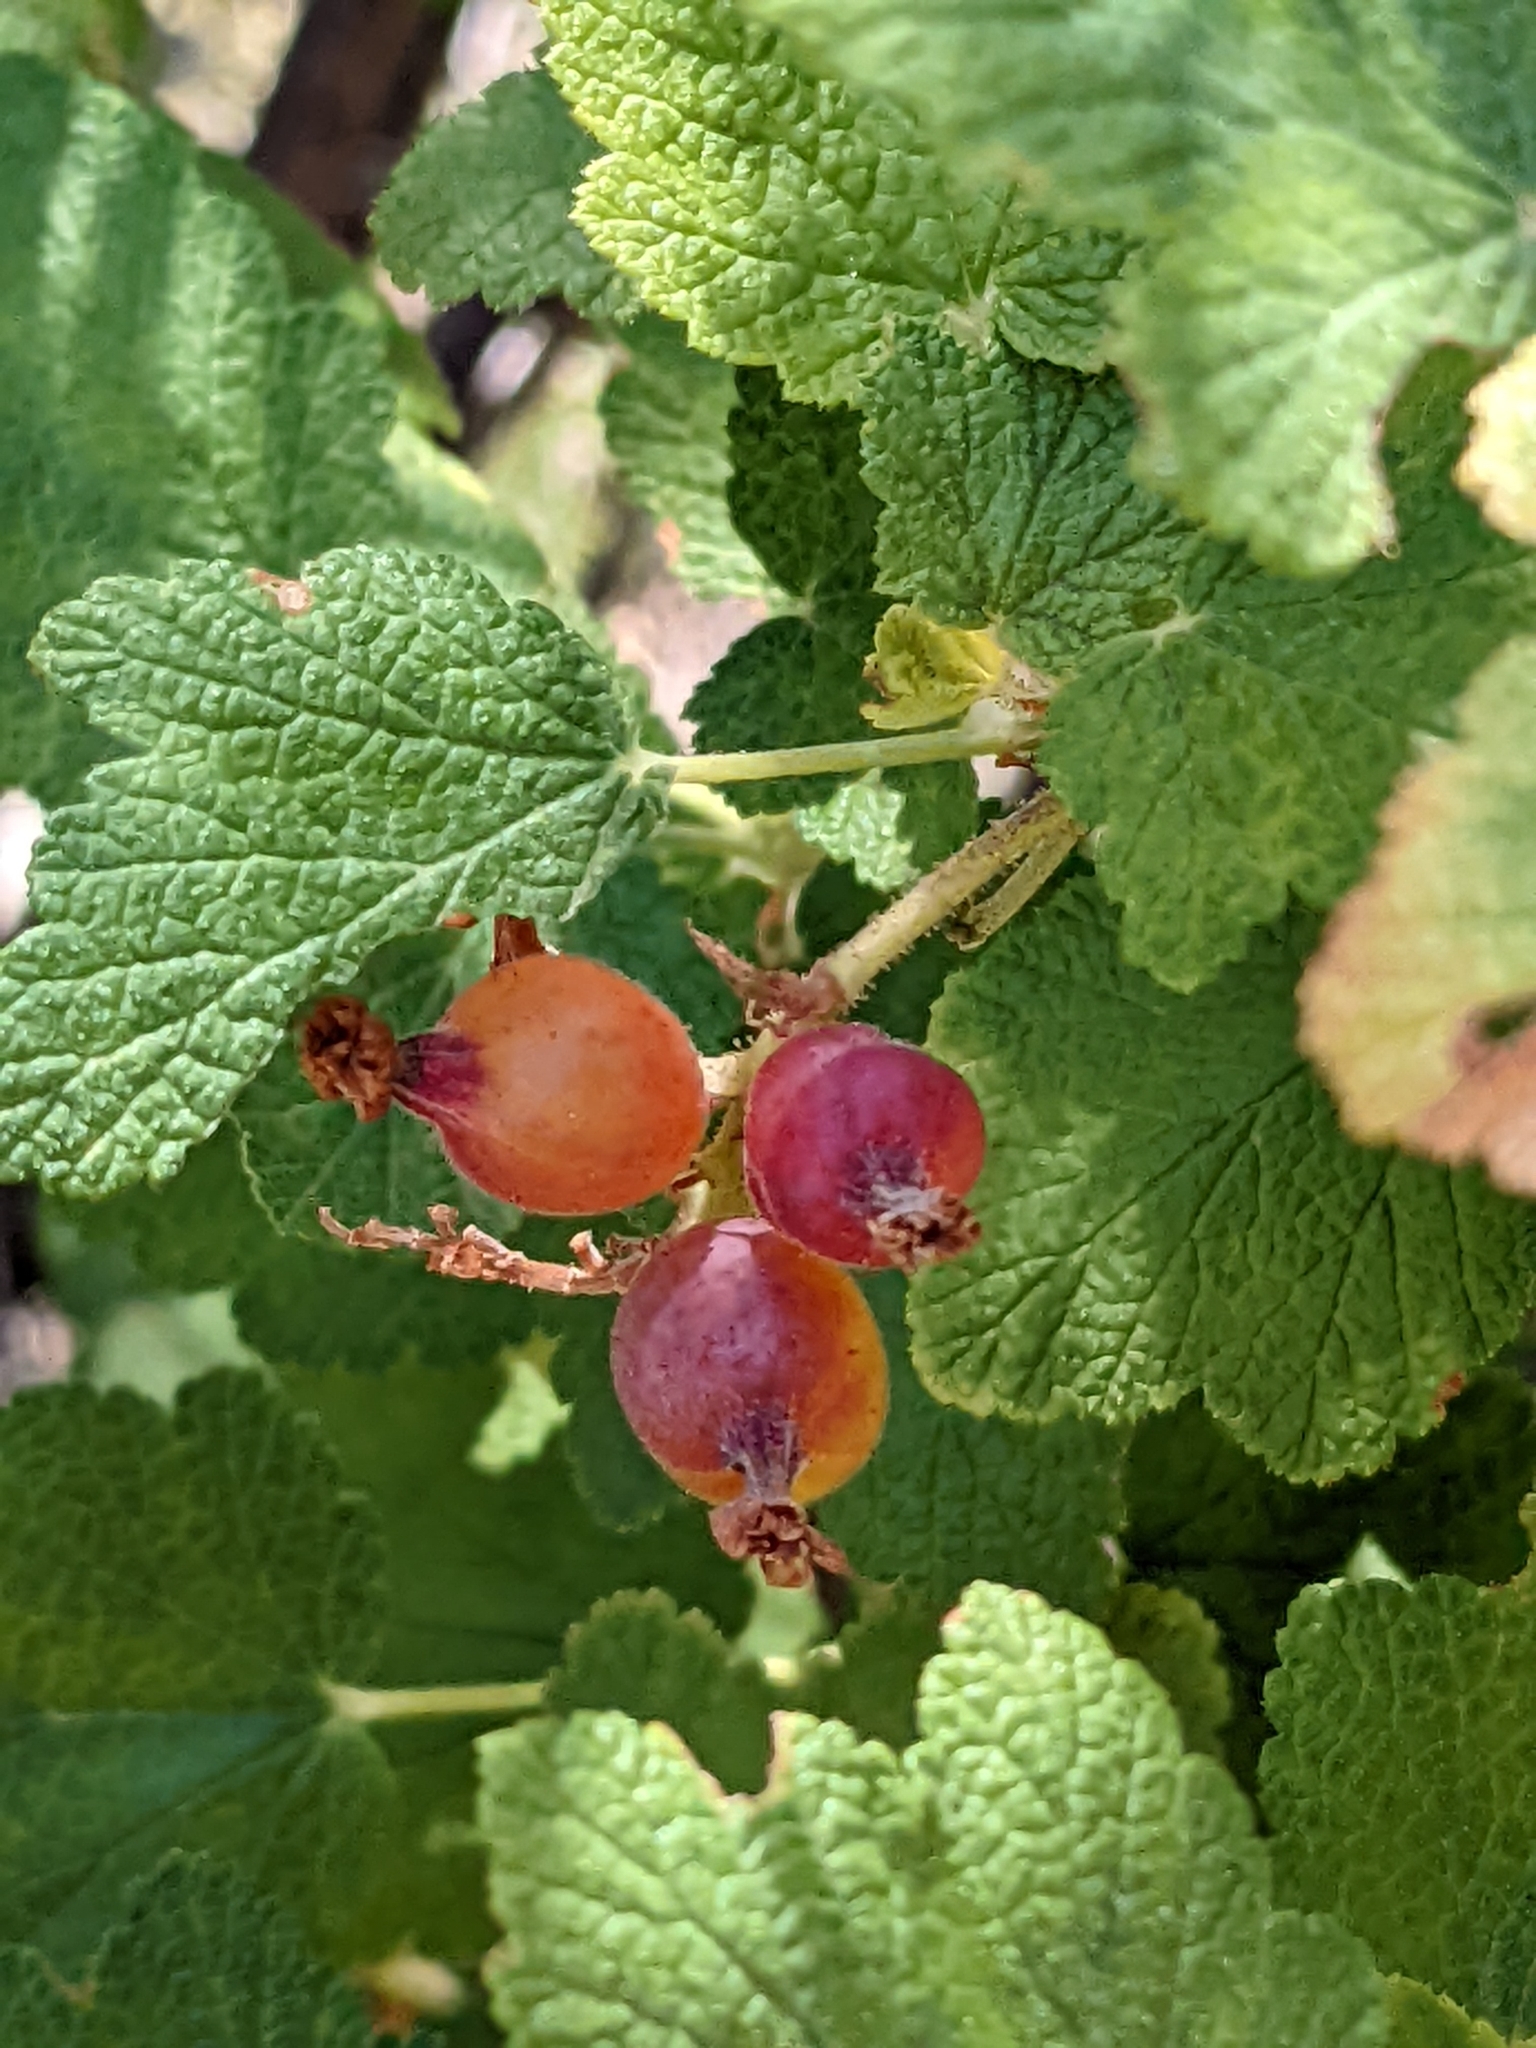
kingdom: Plantae
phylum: Tracheophyta
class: Magnoliopsida
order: Saxifragales
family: Grossulariaceae
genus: Ribes
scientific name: Ribes malvaceum
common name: Chaparral currant
